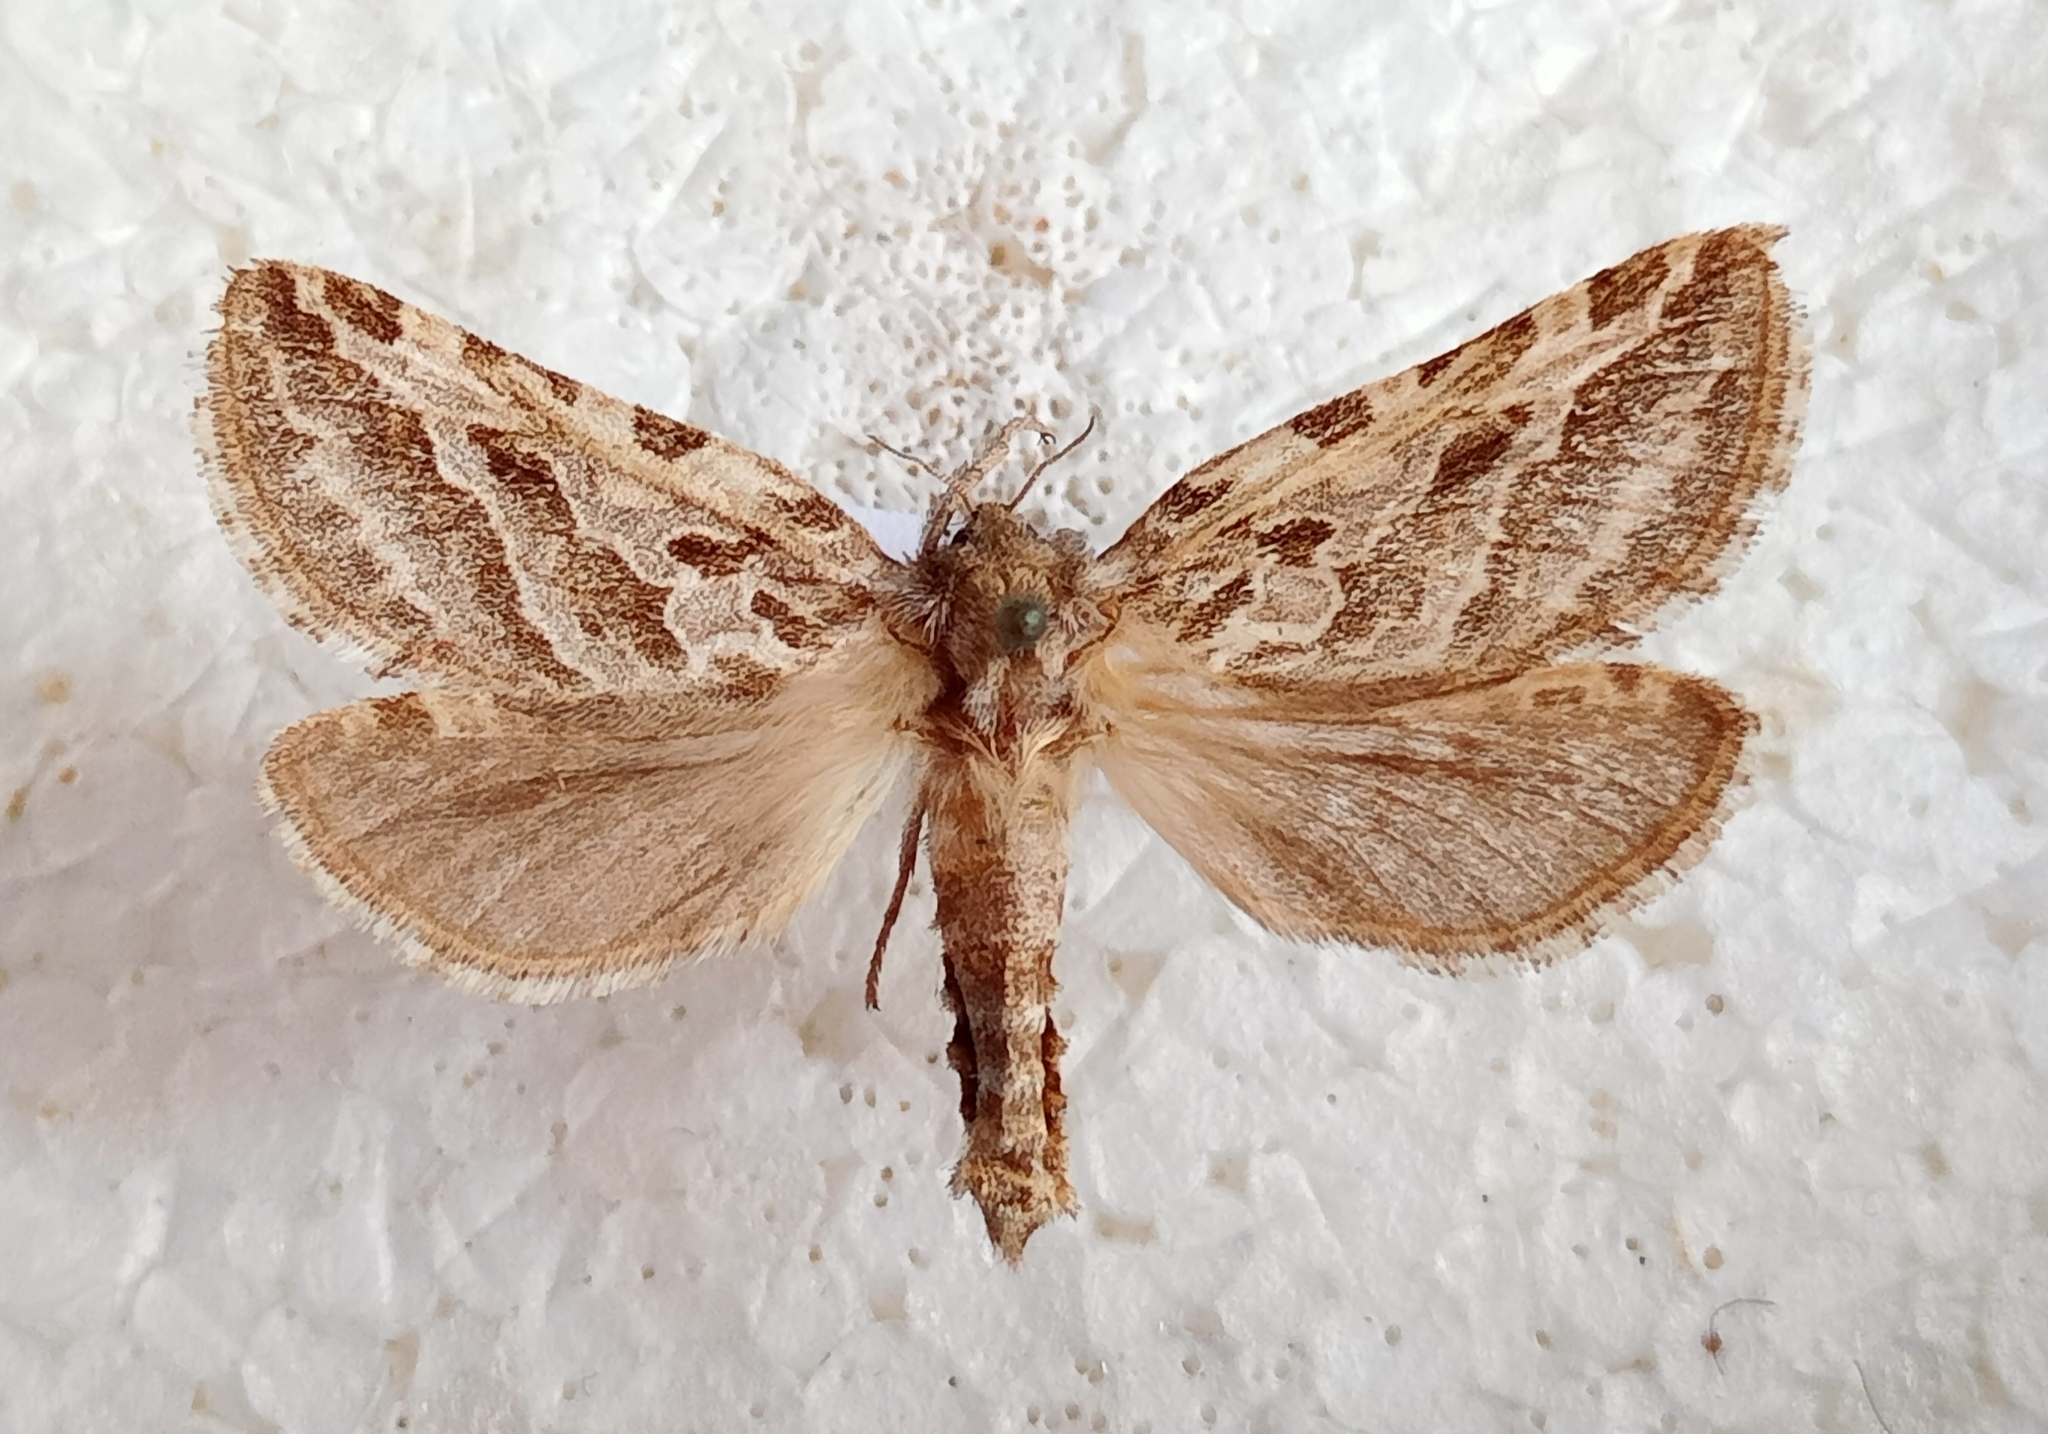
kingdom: Animalia
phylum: Arthropoda
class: Insecta
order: Lepidoptera
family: Hepialidae
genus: Triodia
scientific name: Triodia adriaticus
